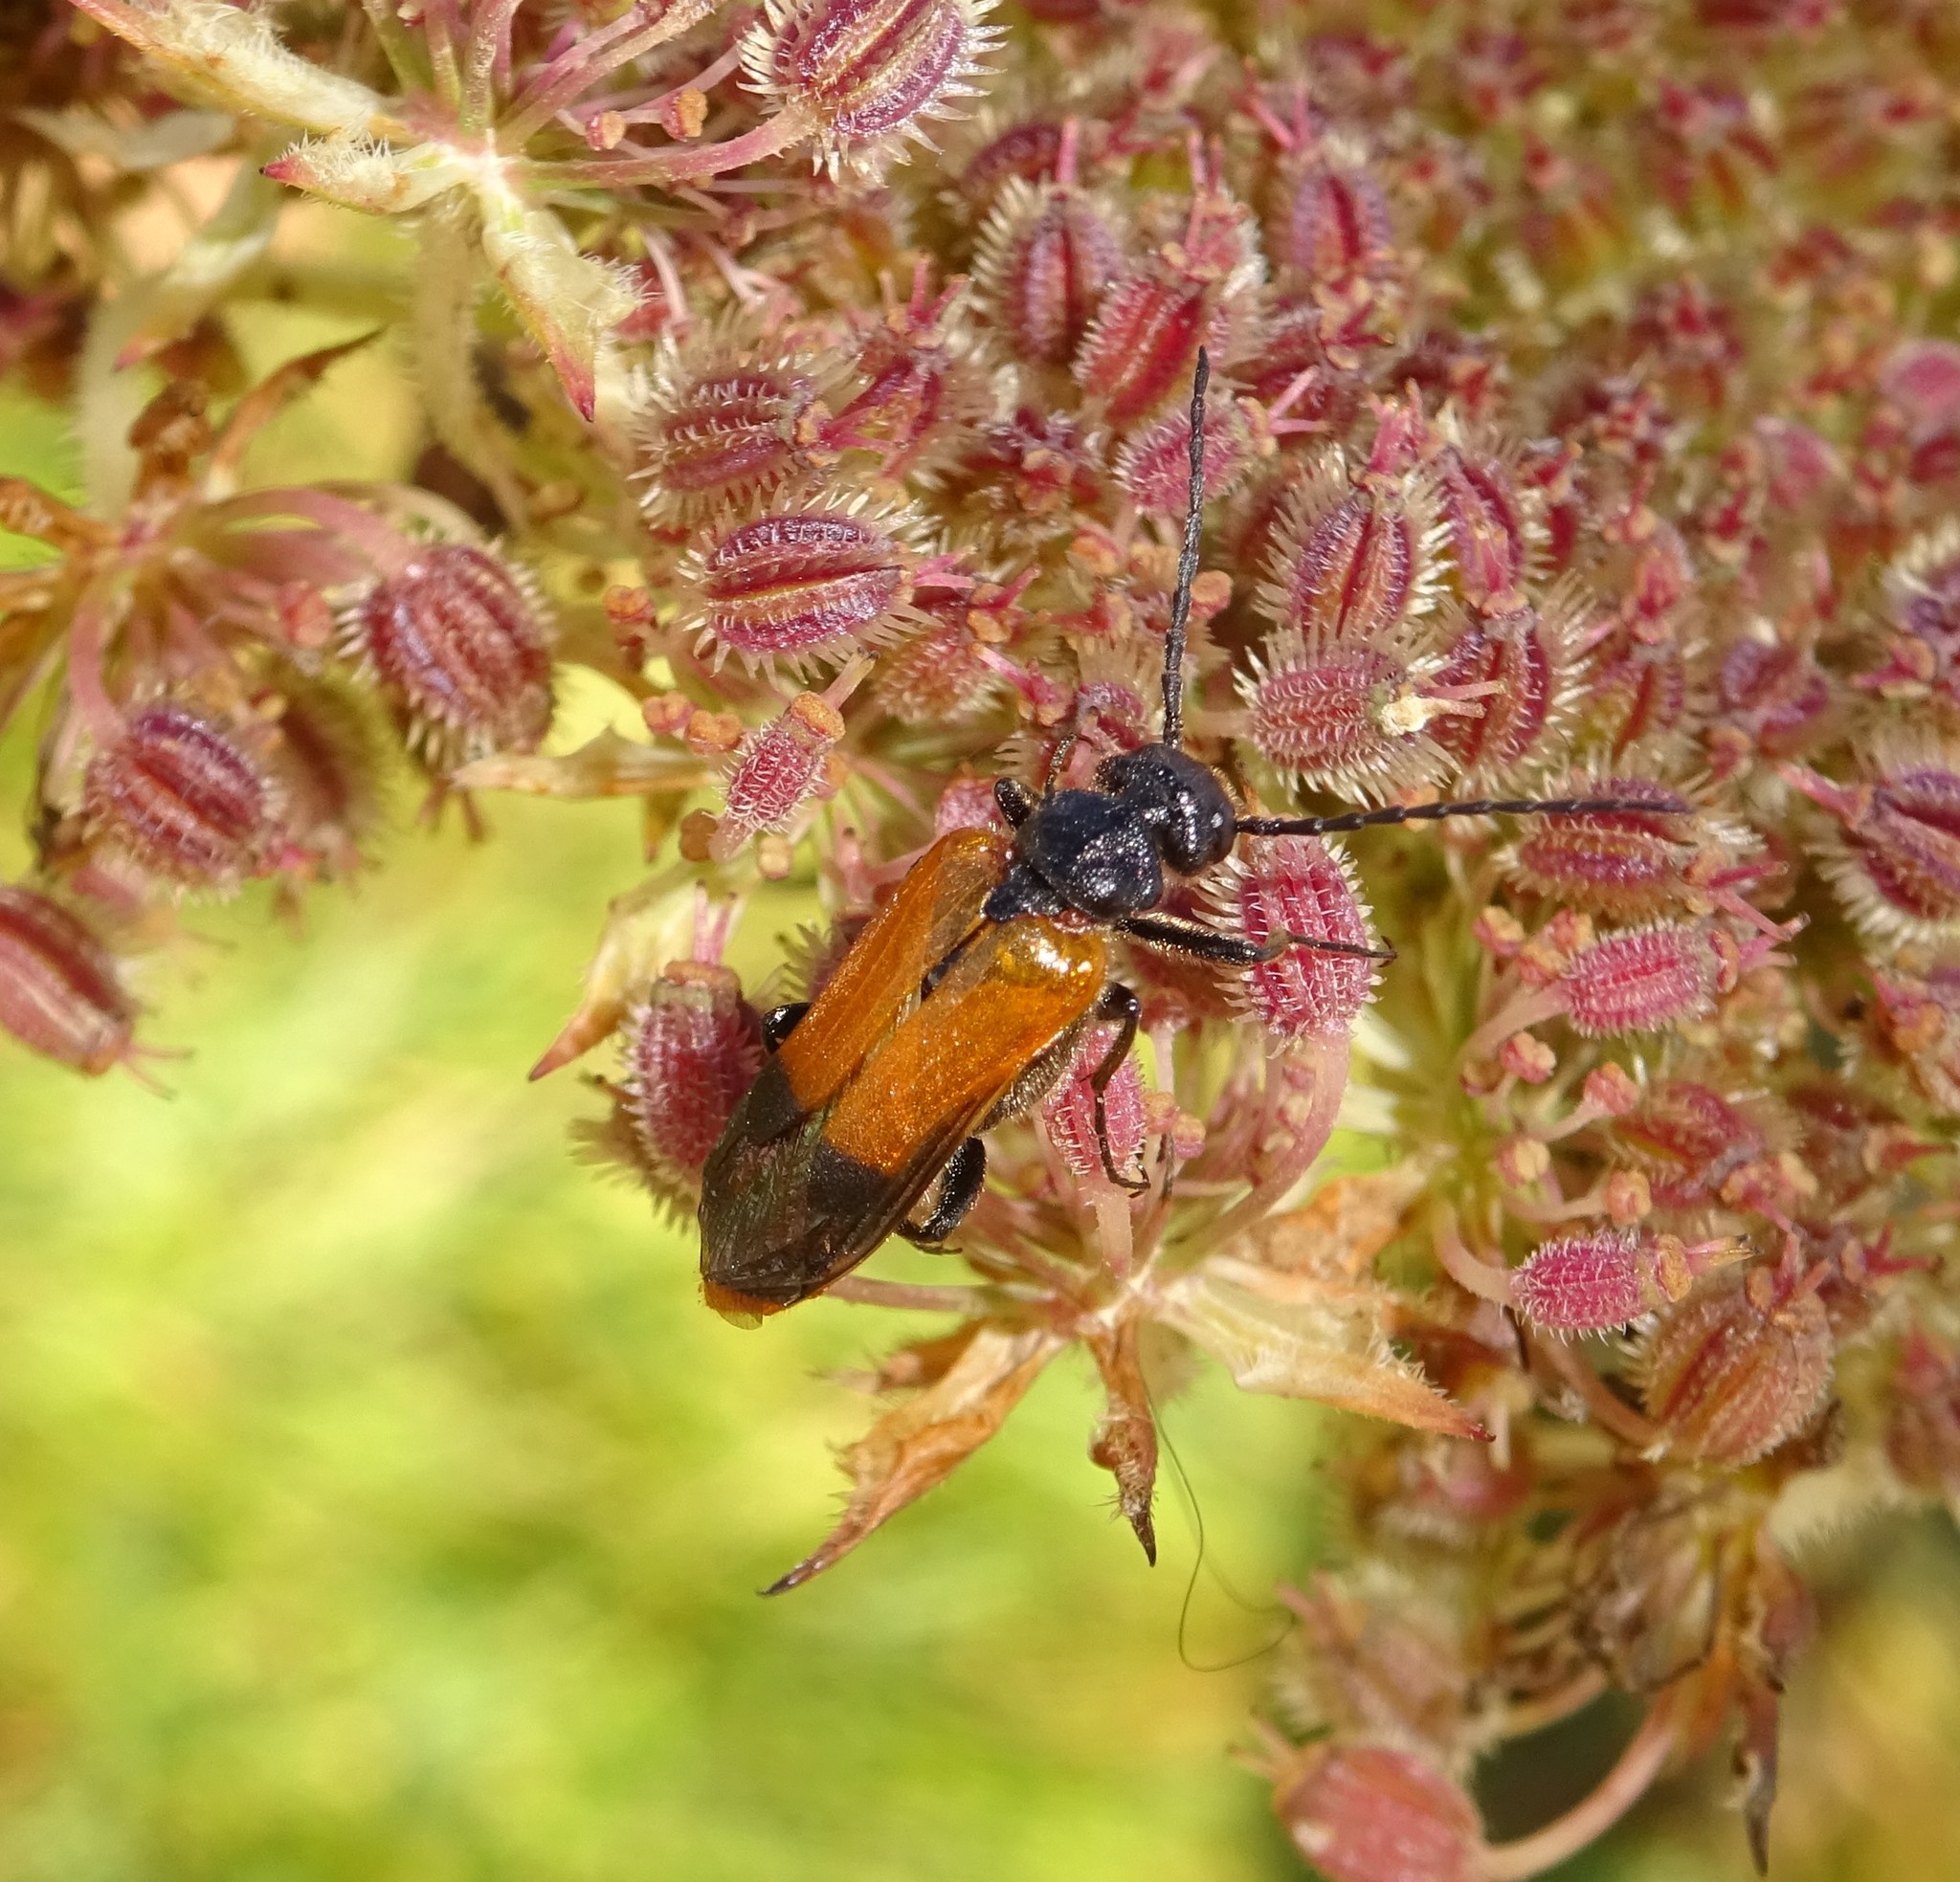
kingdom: Animalia
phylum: Arthropoda
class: Insecta
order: Coleoptera
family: Meloidae
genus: Stenoria
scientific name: Stenoria analis
